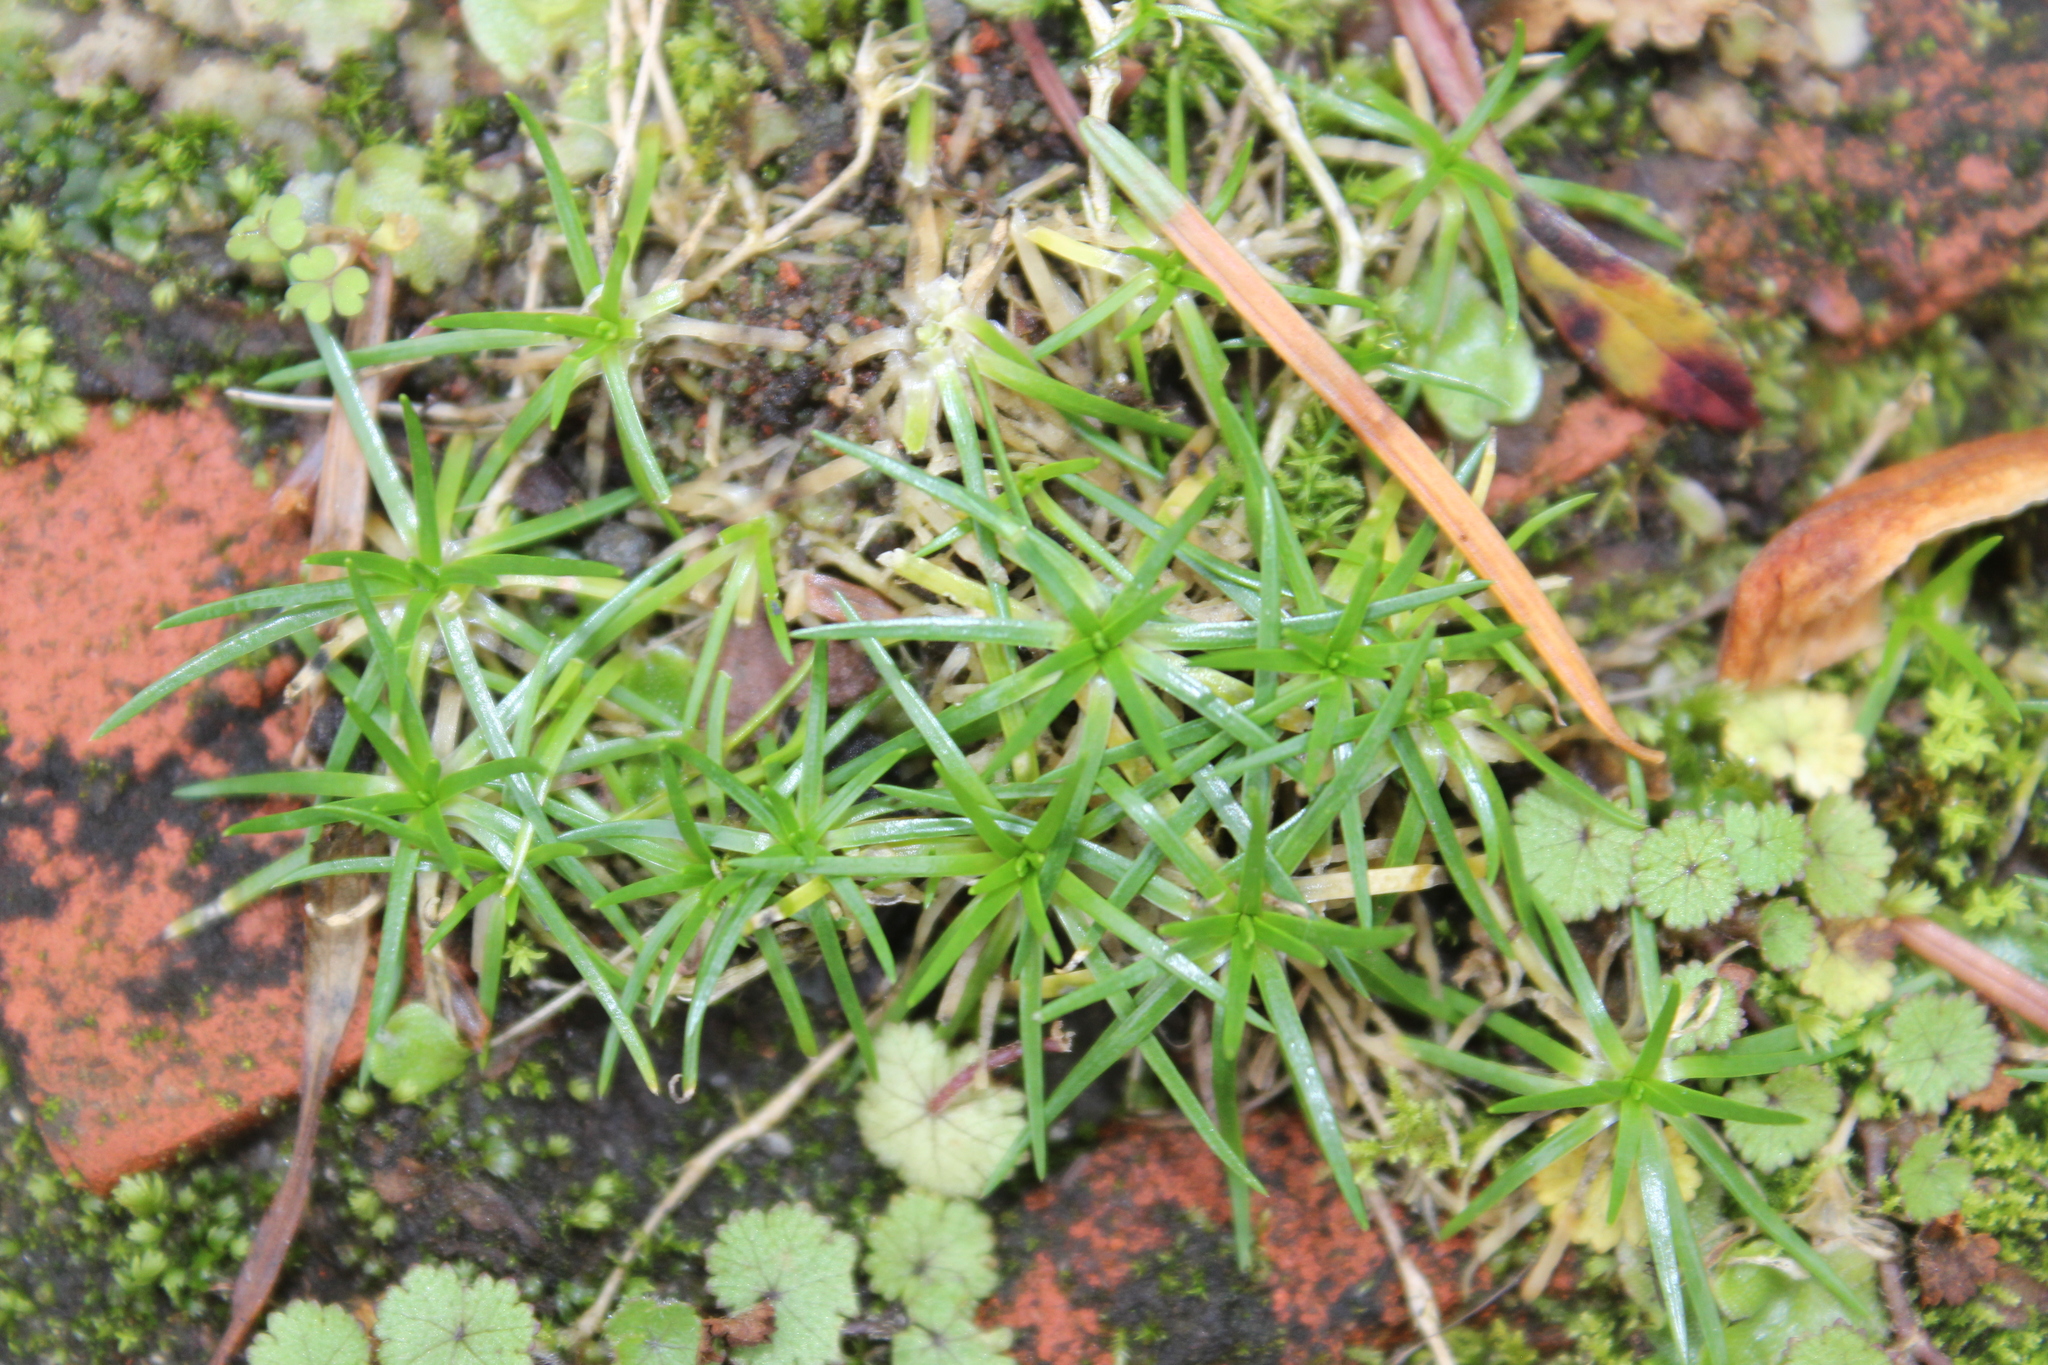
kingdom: Plantae
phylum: Tracheophyta
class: Magnoliopsida
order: Caryophyllales
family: Caryophyllaceae
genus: Sagina
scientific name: Sagina procumbens
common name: Procumbent pearlwort
